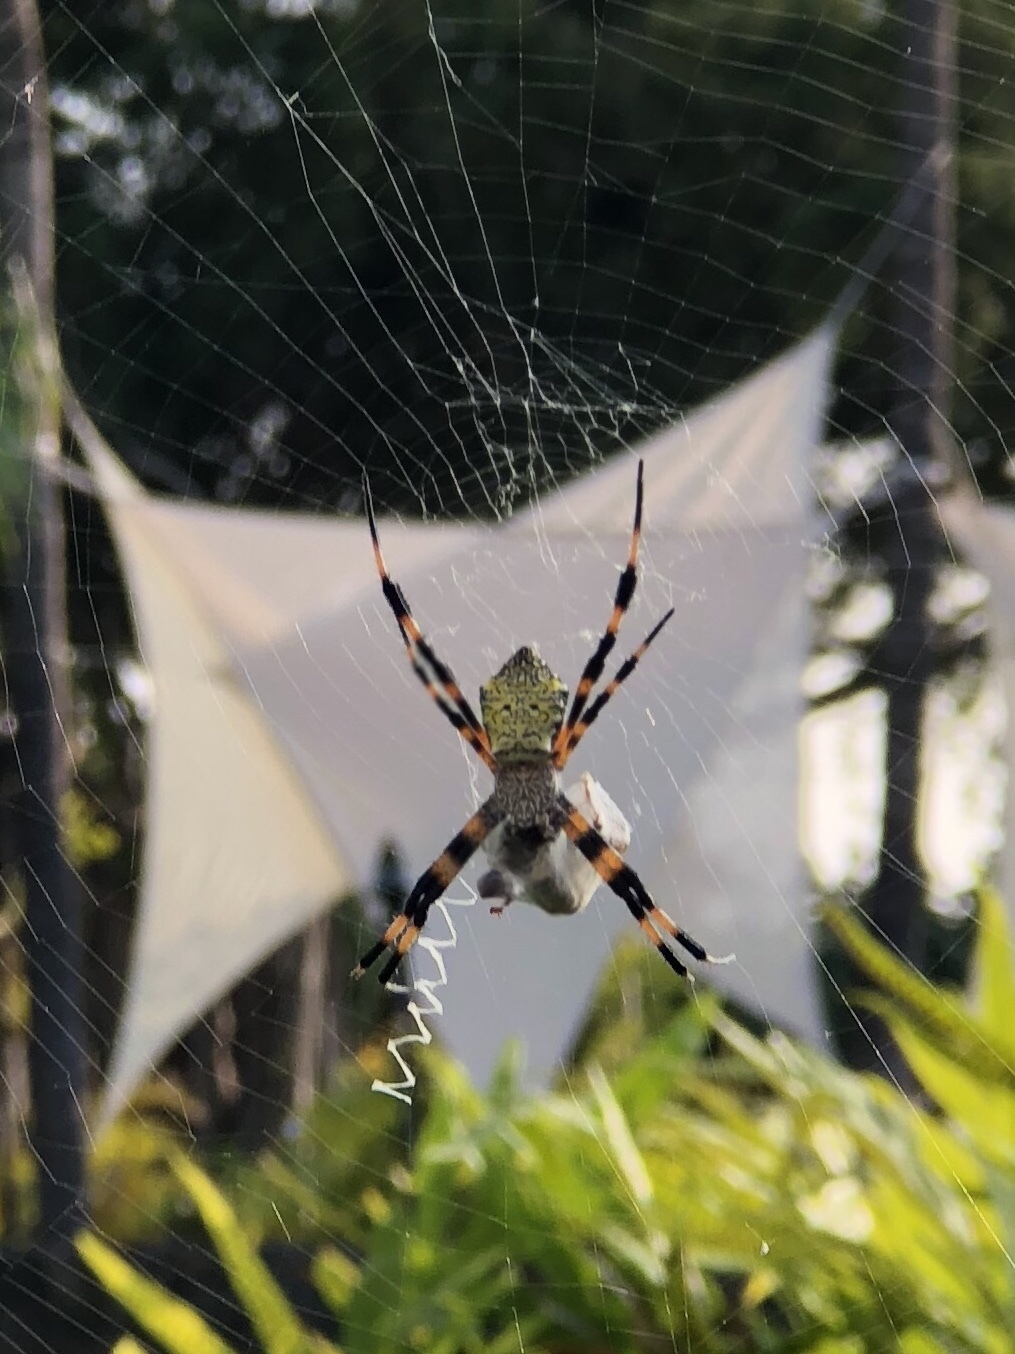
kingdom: Animalia
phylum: Arthropoda
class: Arachnida
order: Araneae
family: Araneidae
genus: Argiope
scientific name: Argiope appensa
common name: Garden spider
